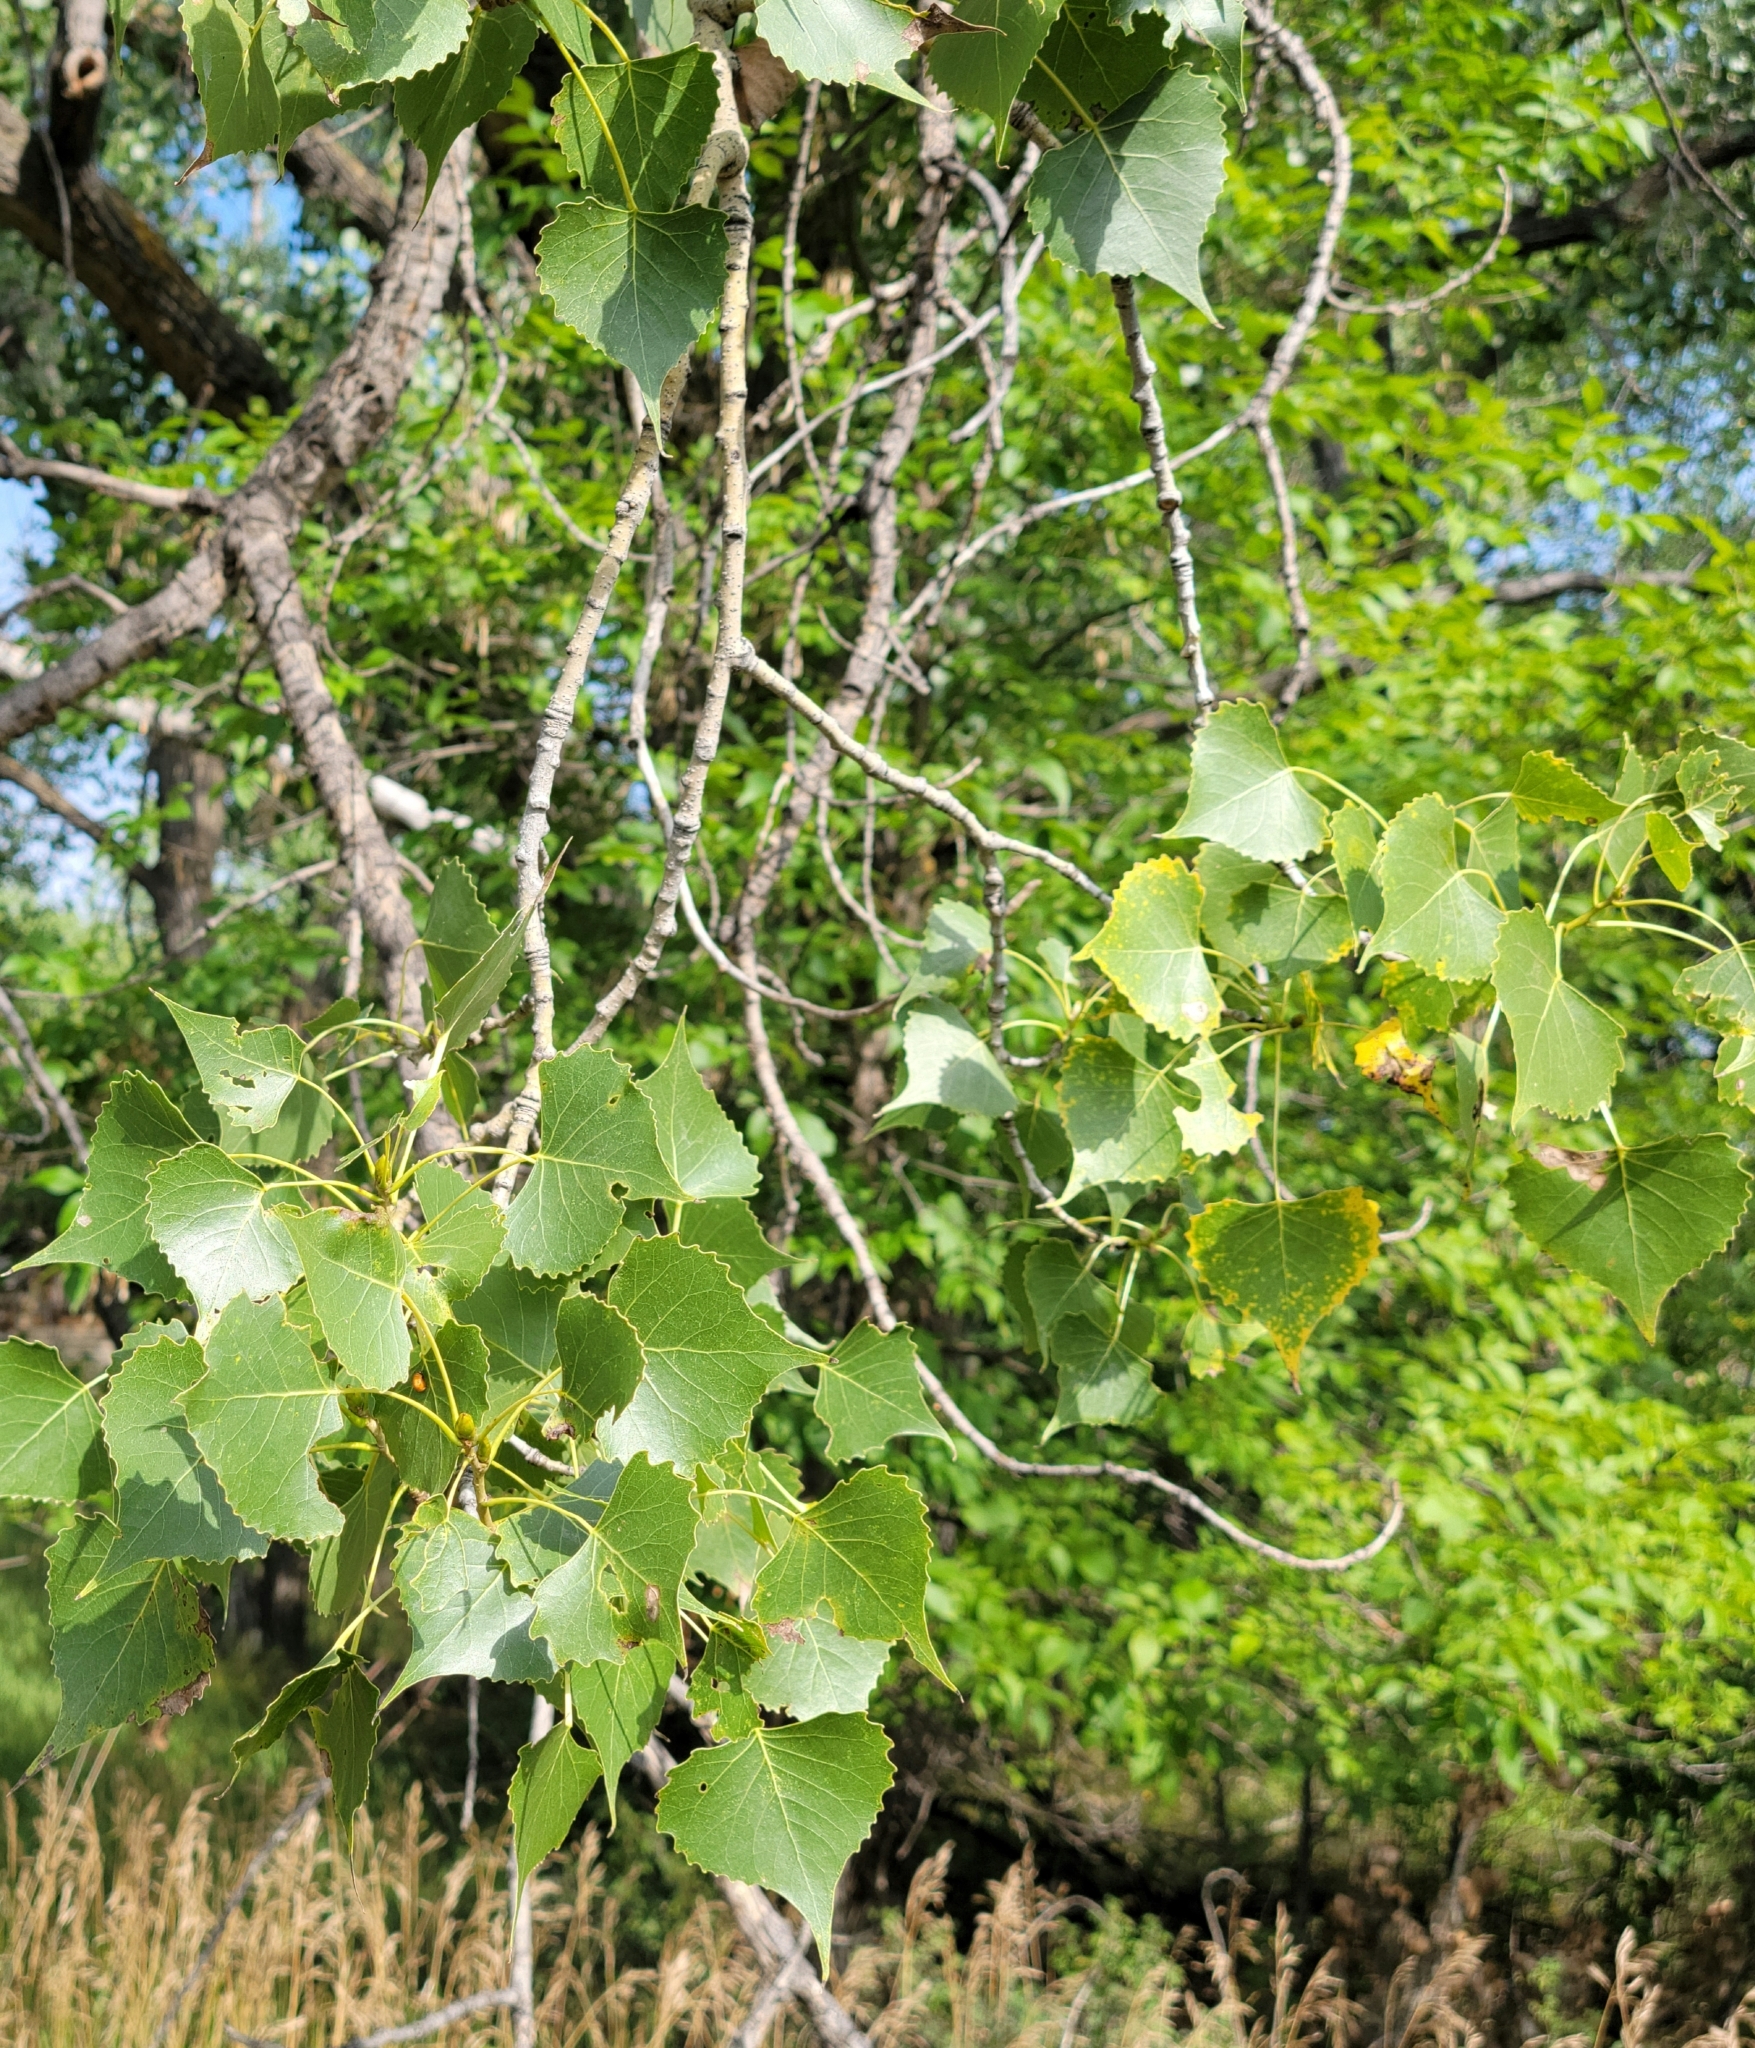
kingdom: Plantae
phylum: Tracheophyta
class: Magnoliopsida
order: Malpighiales
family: Salicaceae
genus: Populus
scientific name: Populus deltoides
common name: Eastern cottonwood
